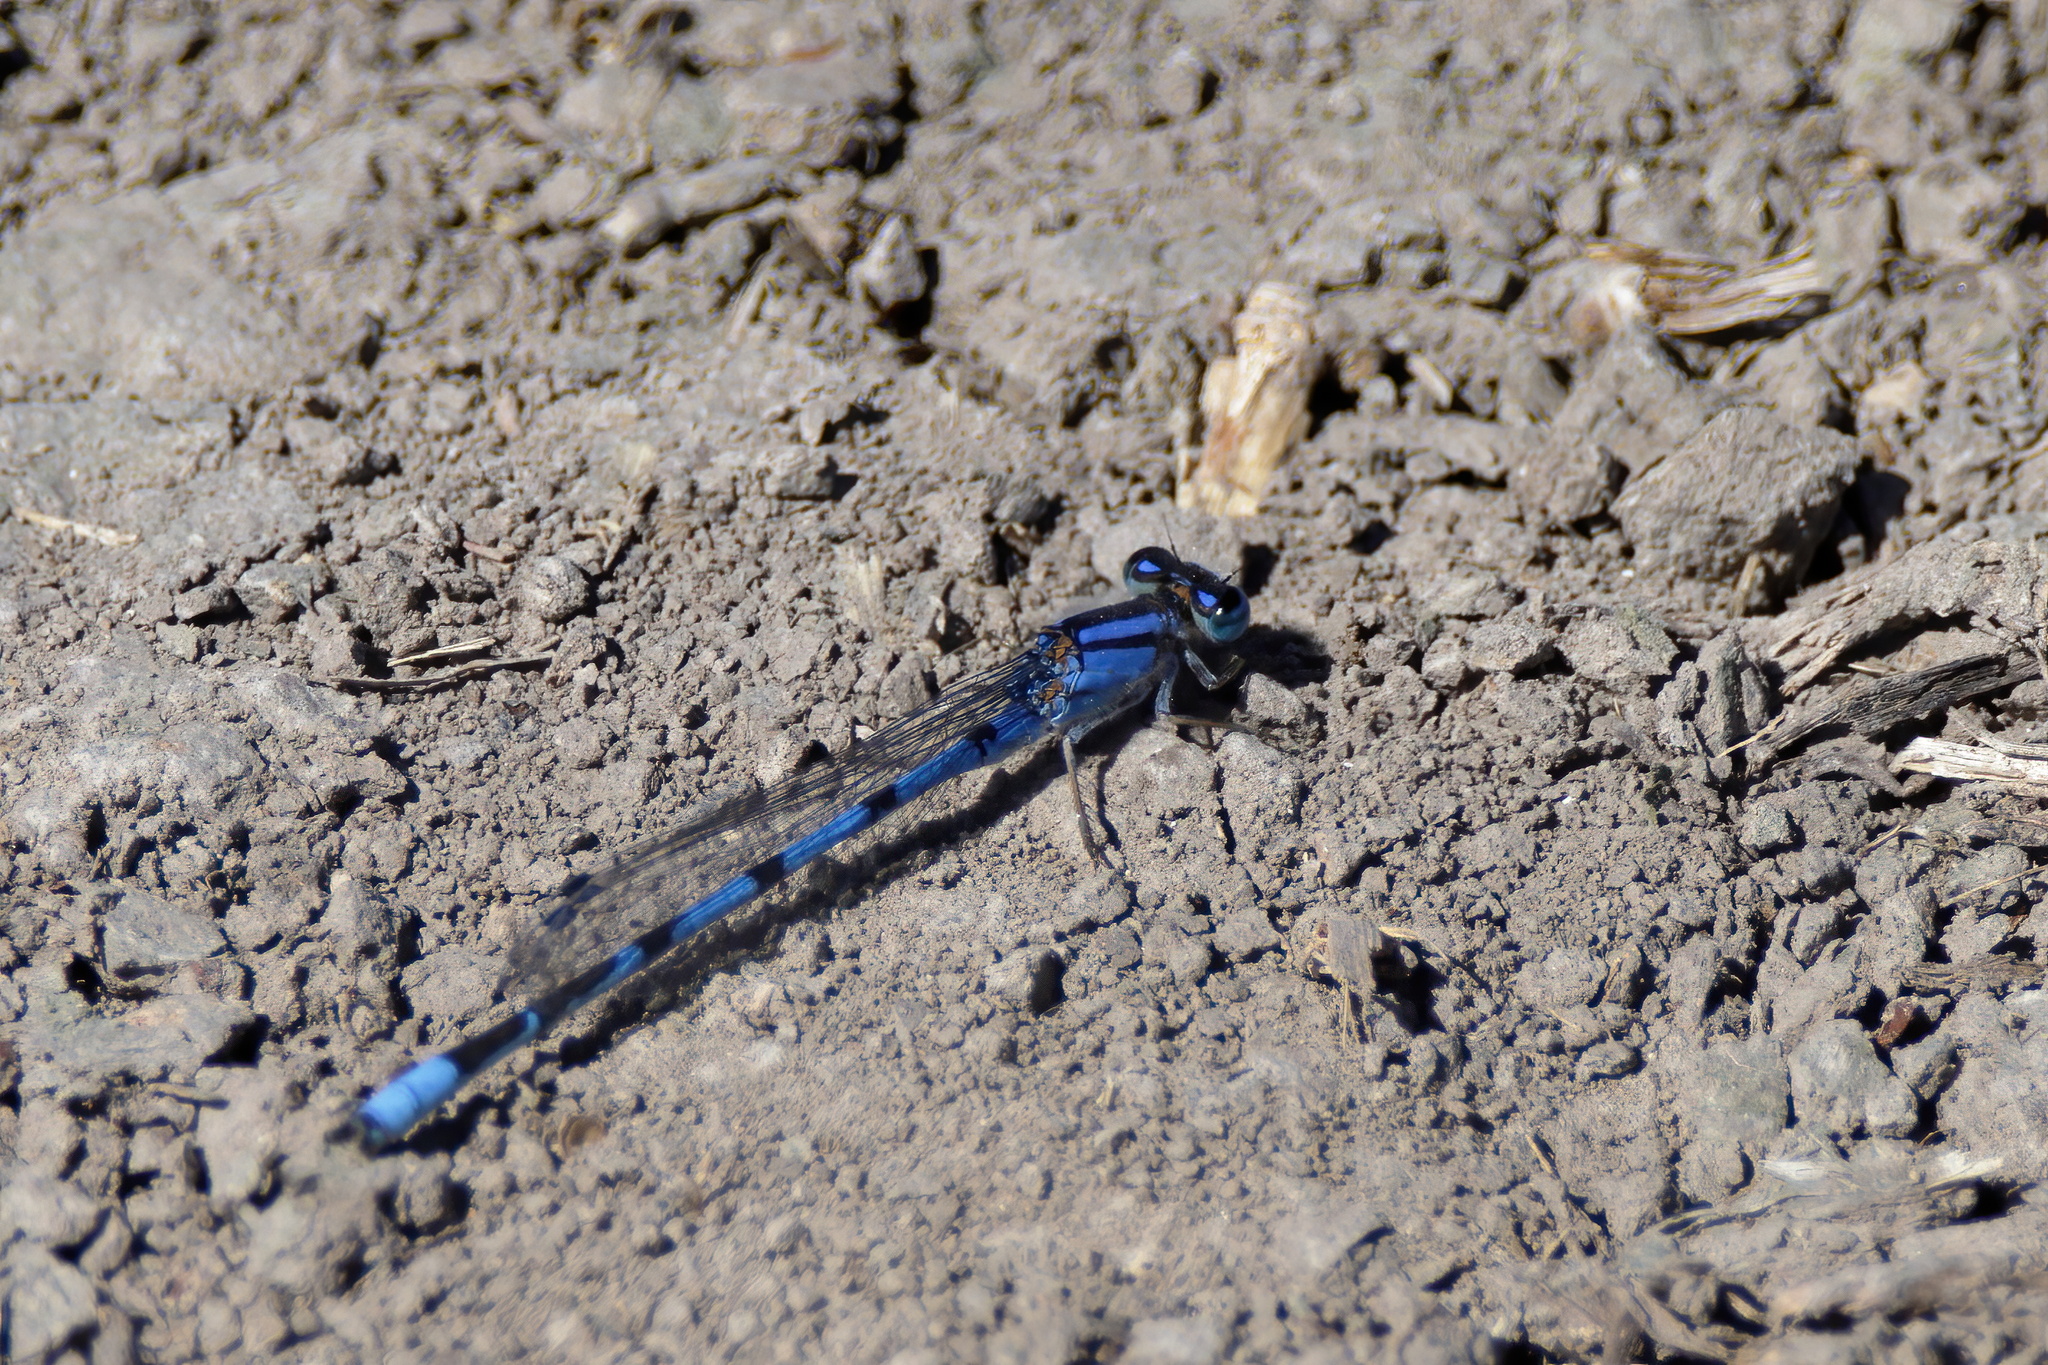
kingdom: Animalia
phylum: Arthropoda
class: Insecta
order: Odonata
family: Coenagrionidae
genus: Enallagma
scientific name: Enallagma civile
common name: Damselfly
